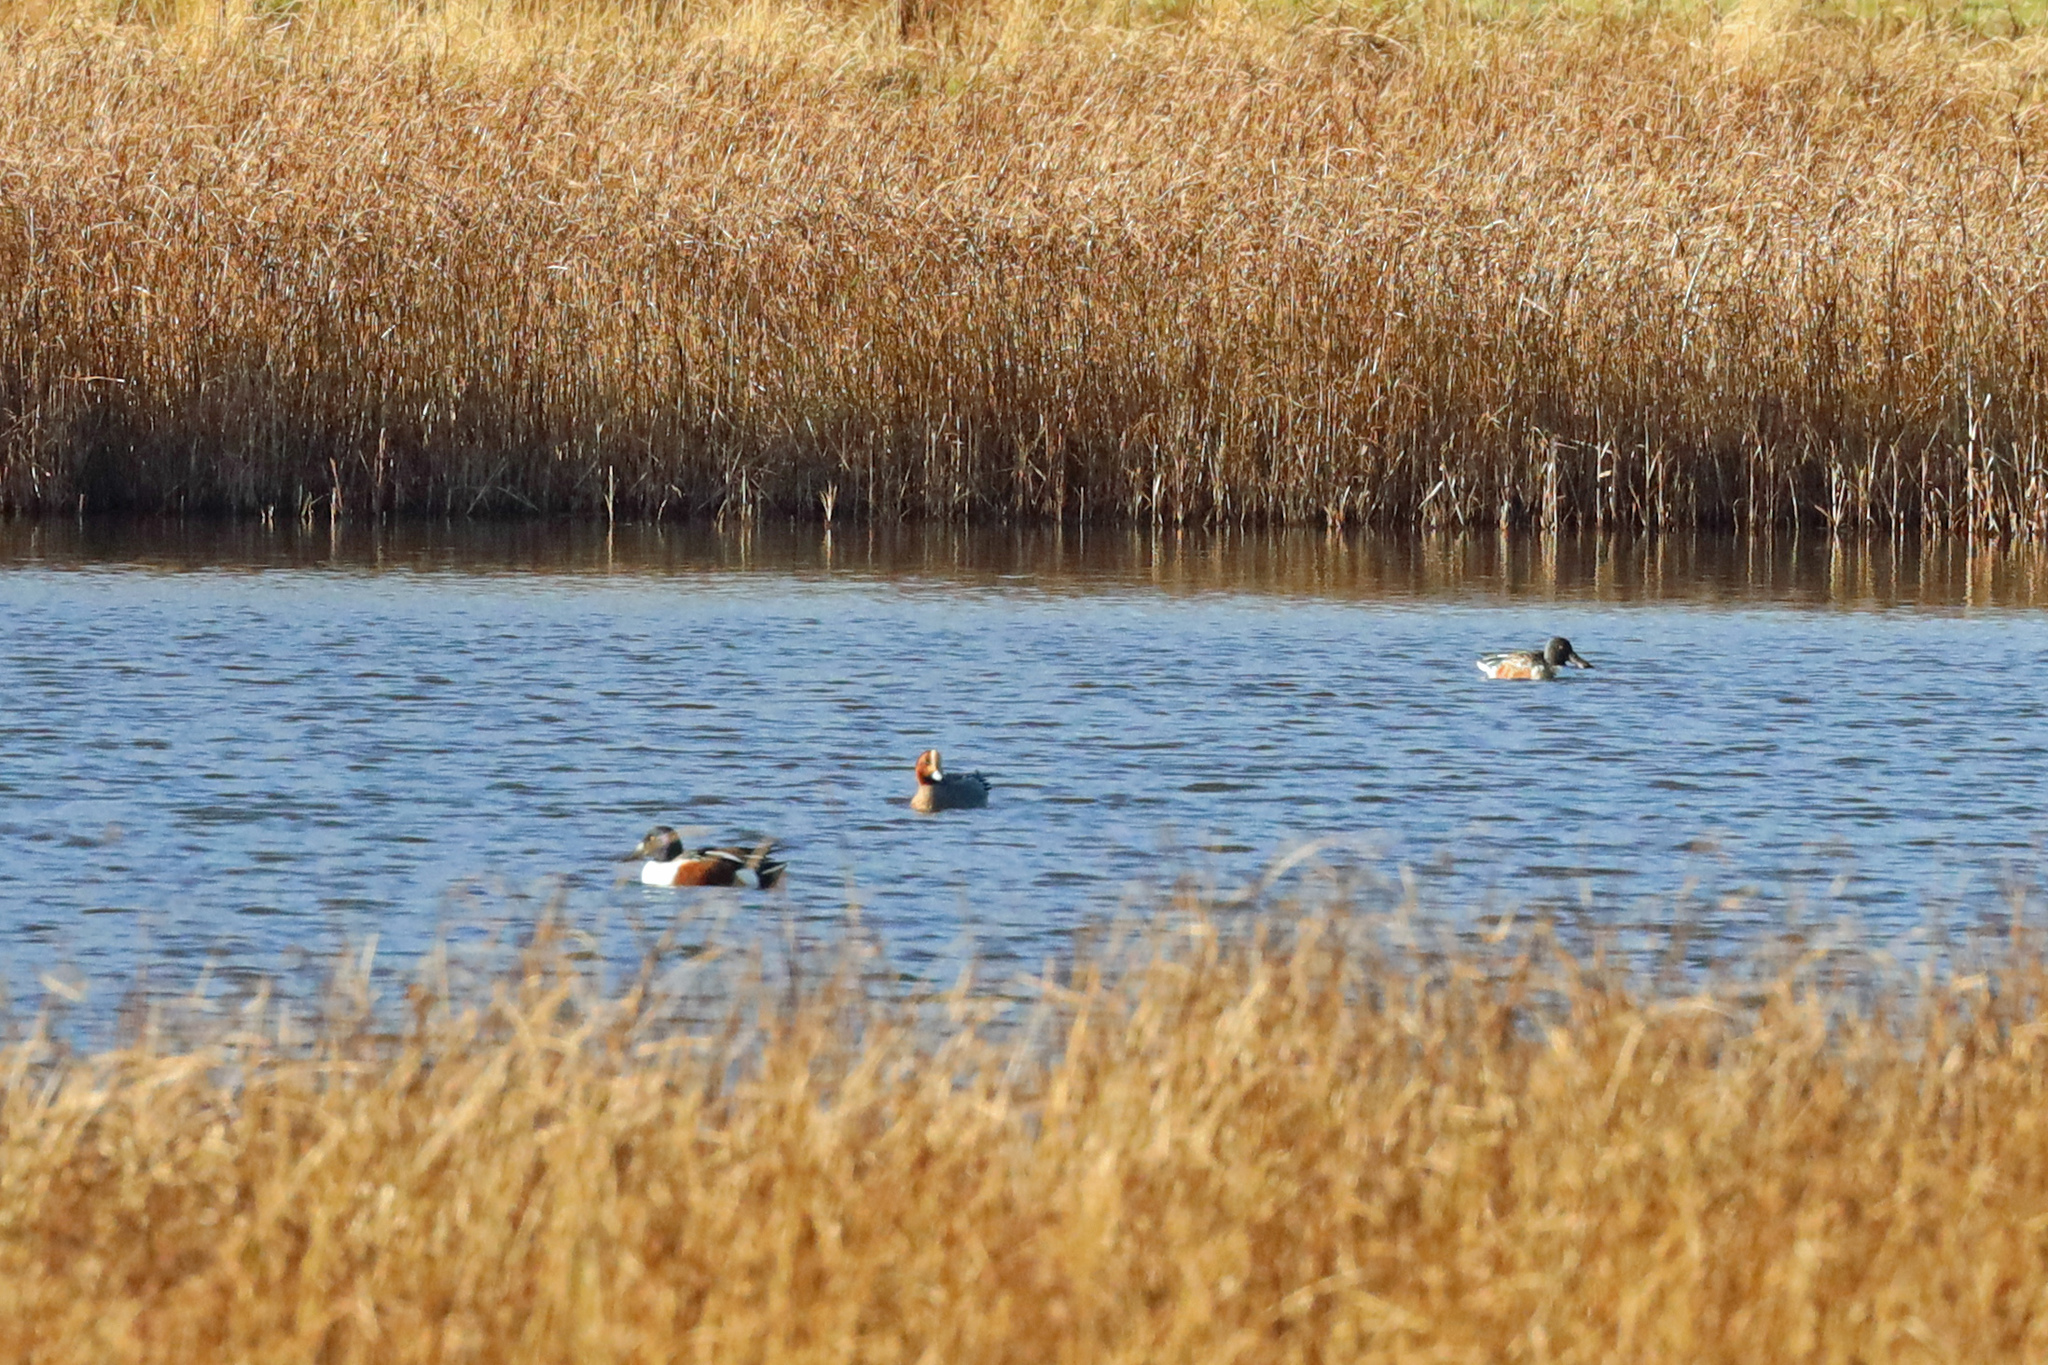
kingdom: Animalia
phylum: Chordata
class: Aves
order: Anseriformes
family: Anatidae
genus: Spatula
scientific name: Spatula clypeata
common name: Northern shoveler
